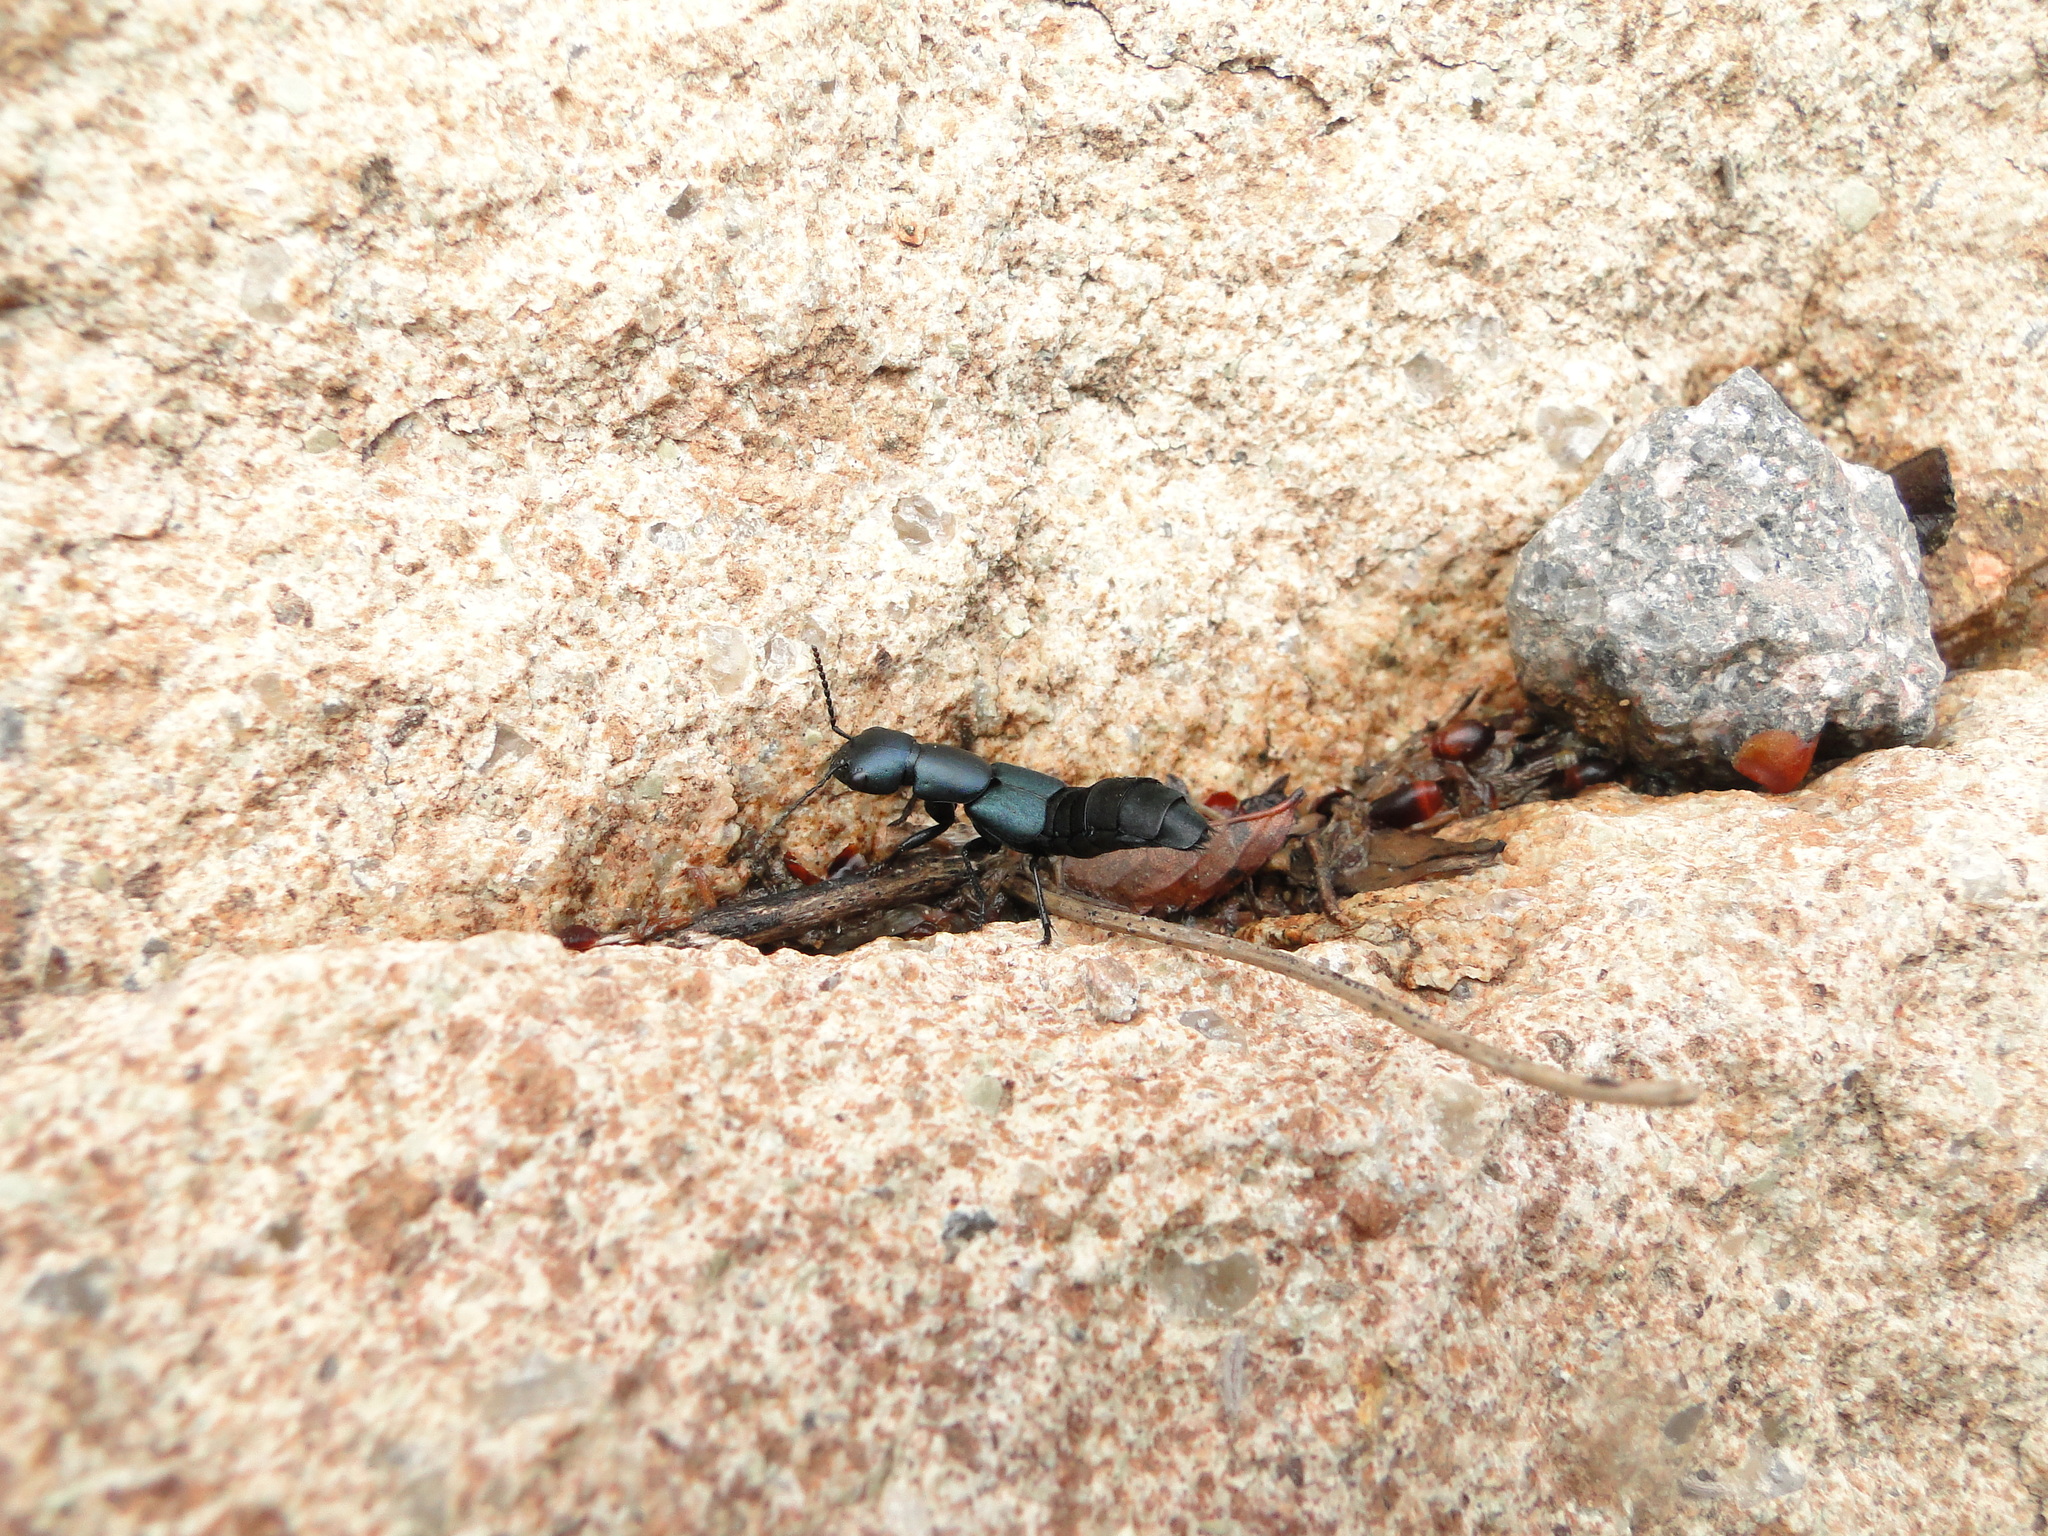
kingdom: Animalia
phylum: Arthropoda
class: Insecta
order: Coleoptera
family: Staphylinidae
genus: Ocypus
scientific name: Ocypus ophthalmicus
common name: Blue rove-beetle
